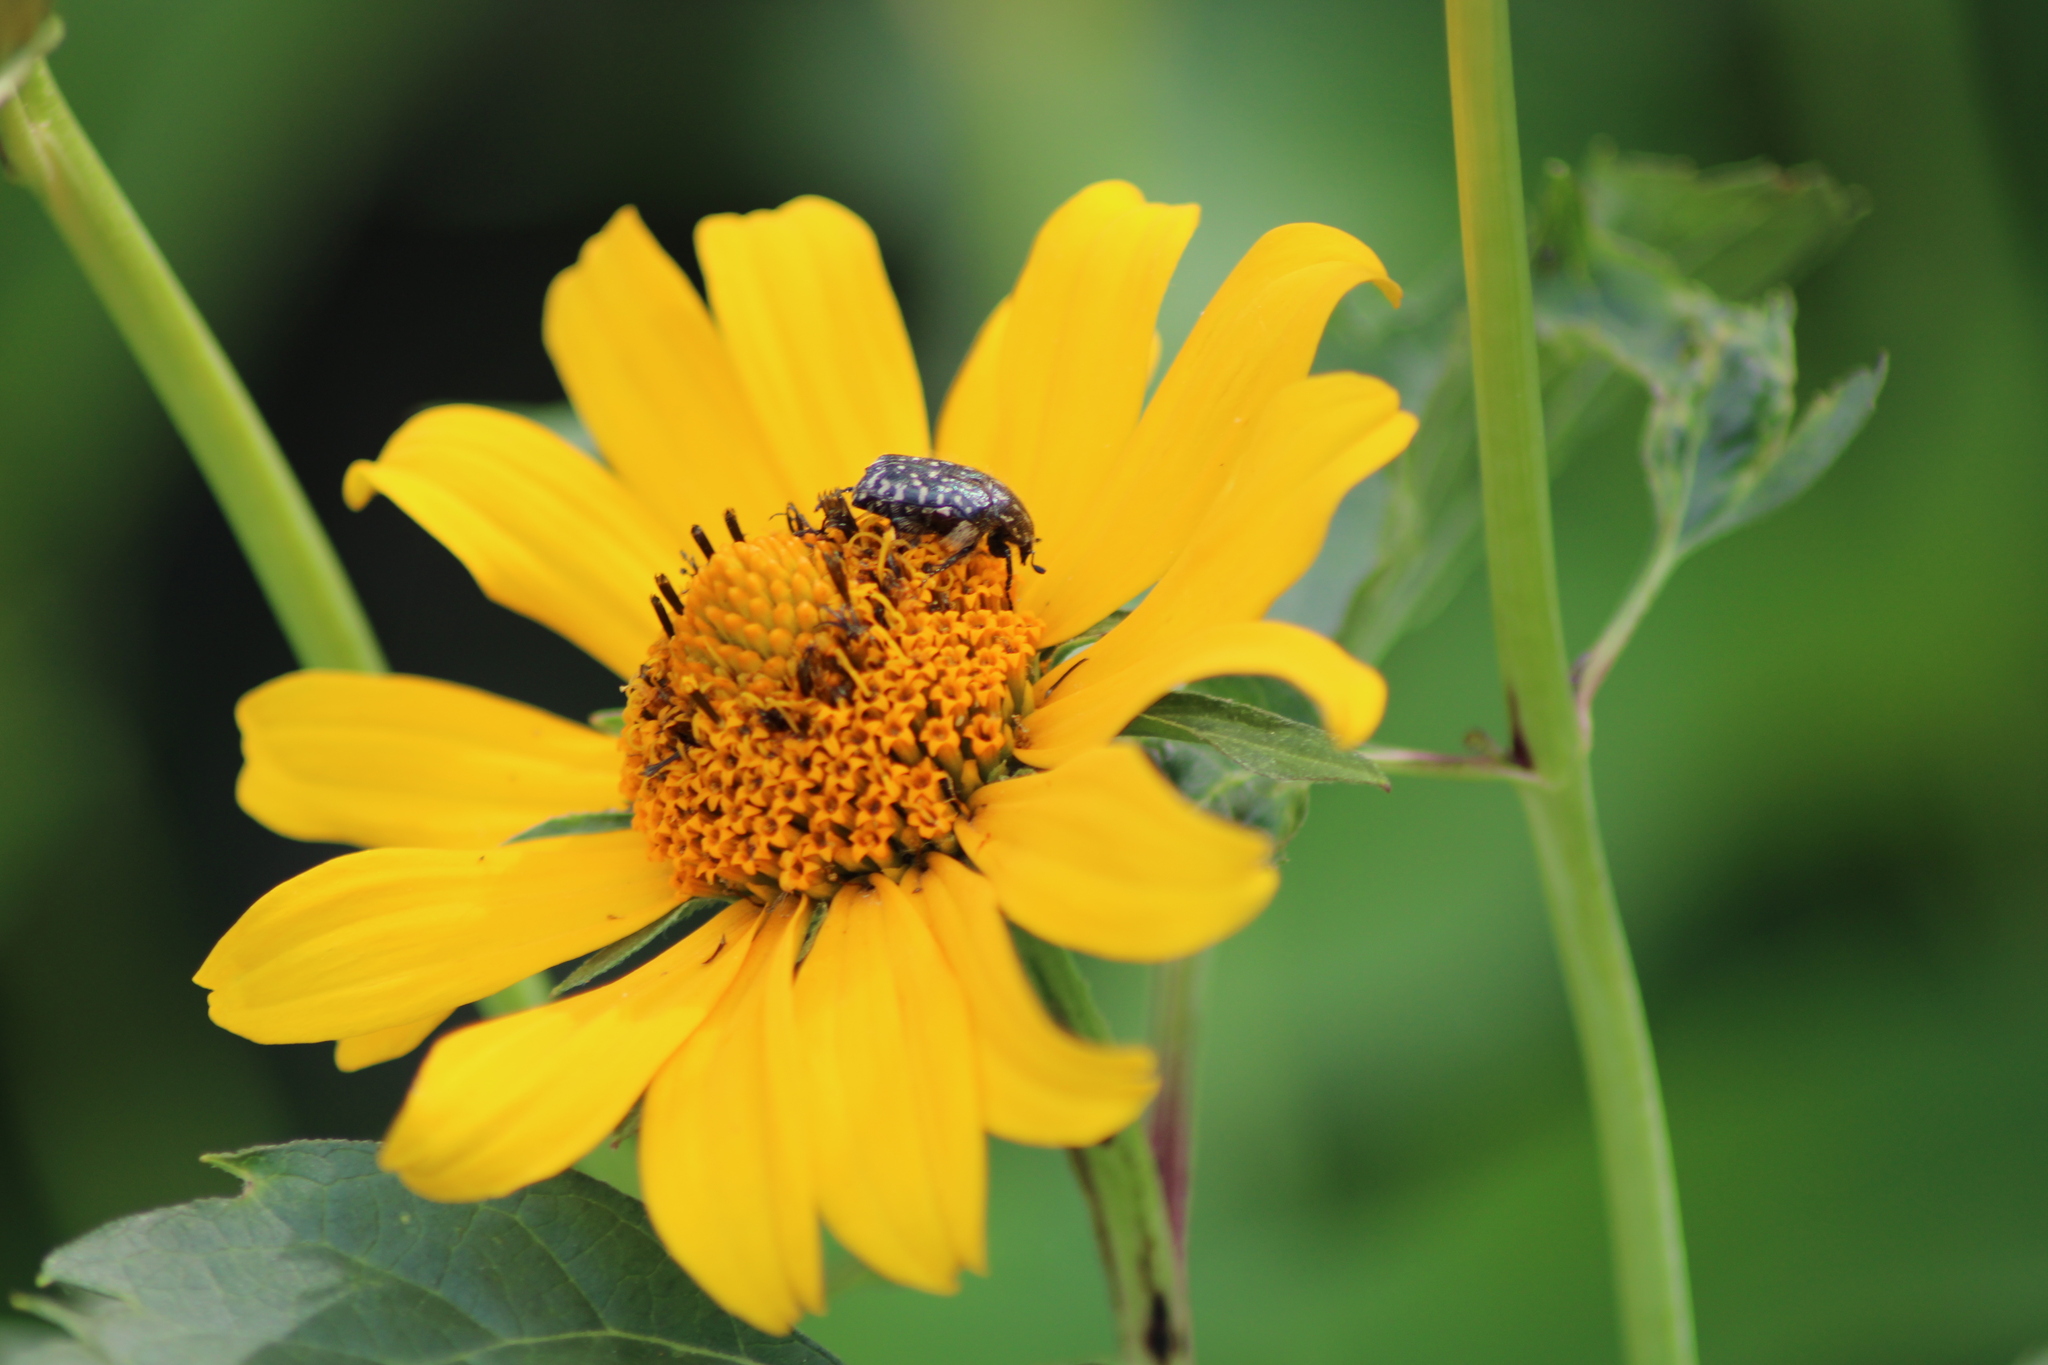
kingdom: Animalia
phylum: Arthropoda
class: Insecta
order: Coleoptera
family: Scarabaeidae
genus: Oxythyrea
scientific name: Oxythyrea funesta
